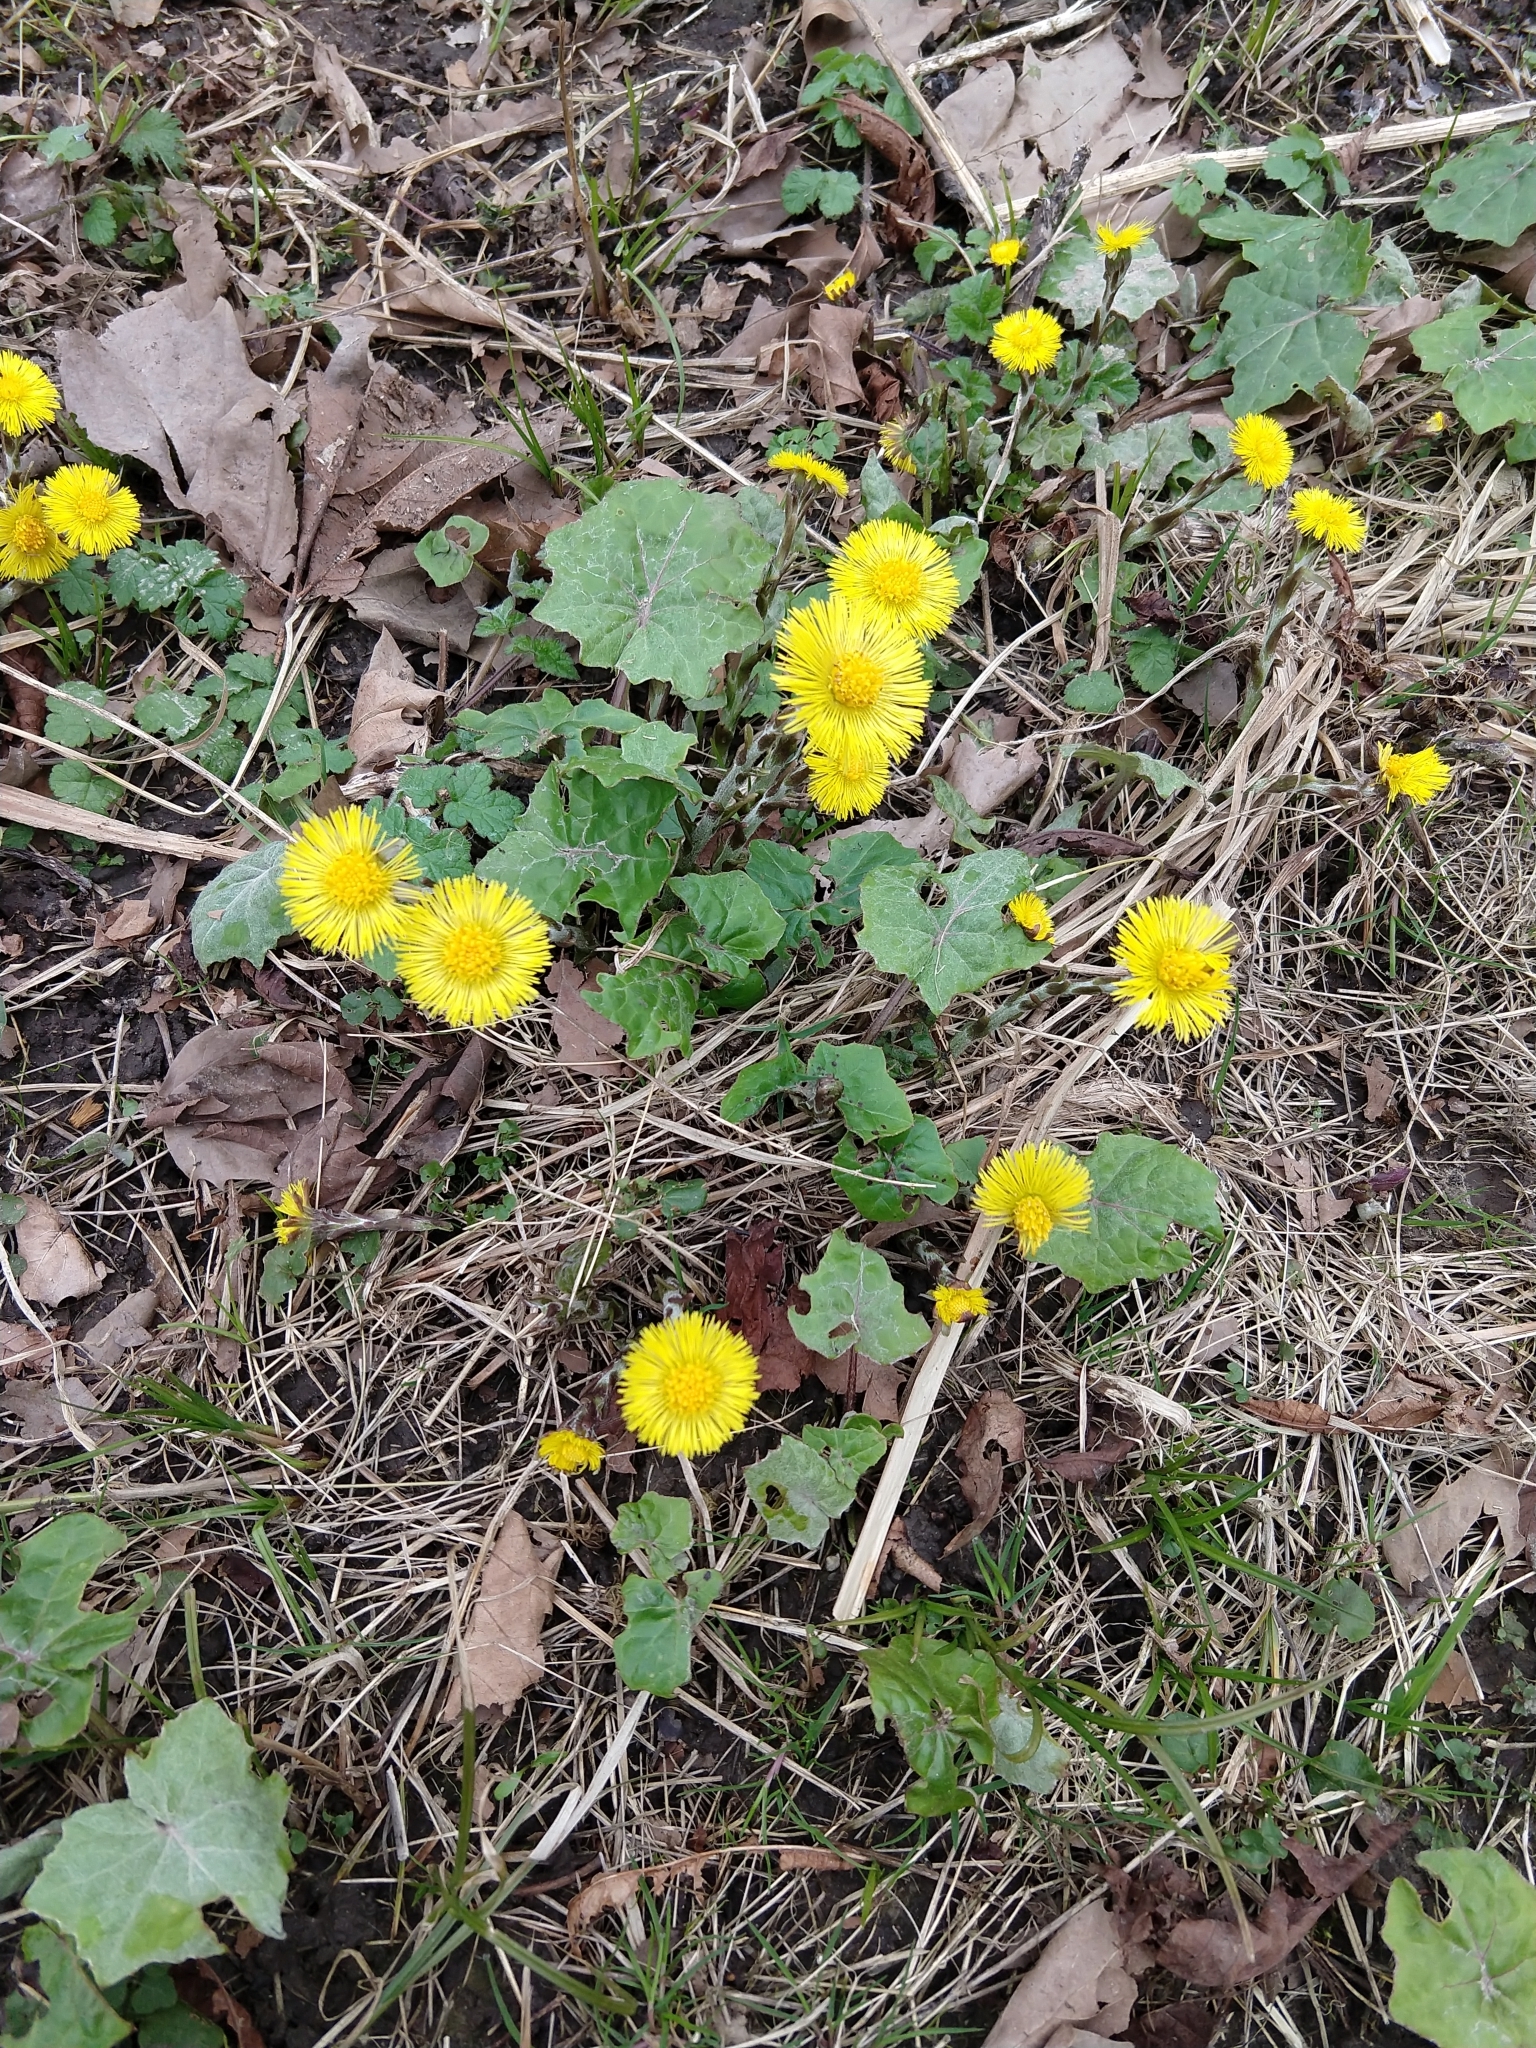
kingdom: Plantae
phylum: Tracheophyta
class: Magnoliopsida
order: Asterales
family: Asteraceae
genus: Tussilago
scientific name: Tussilago farfara
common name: Coltsfoot
